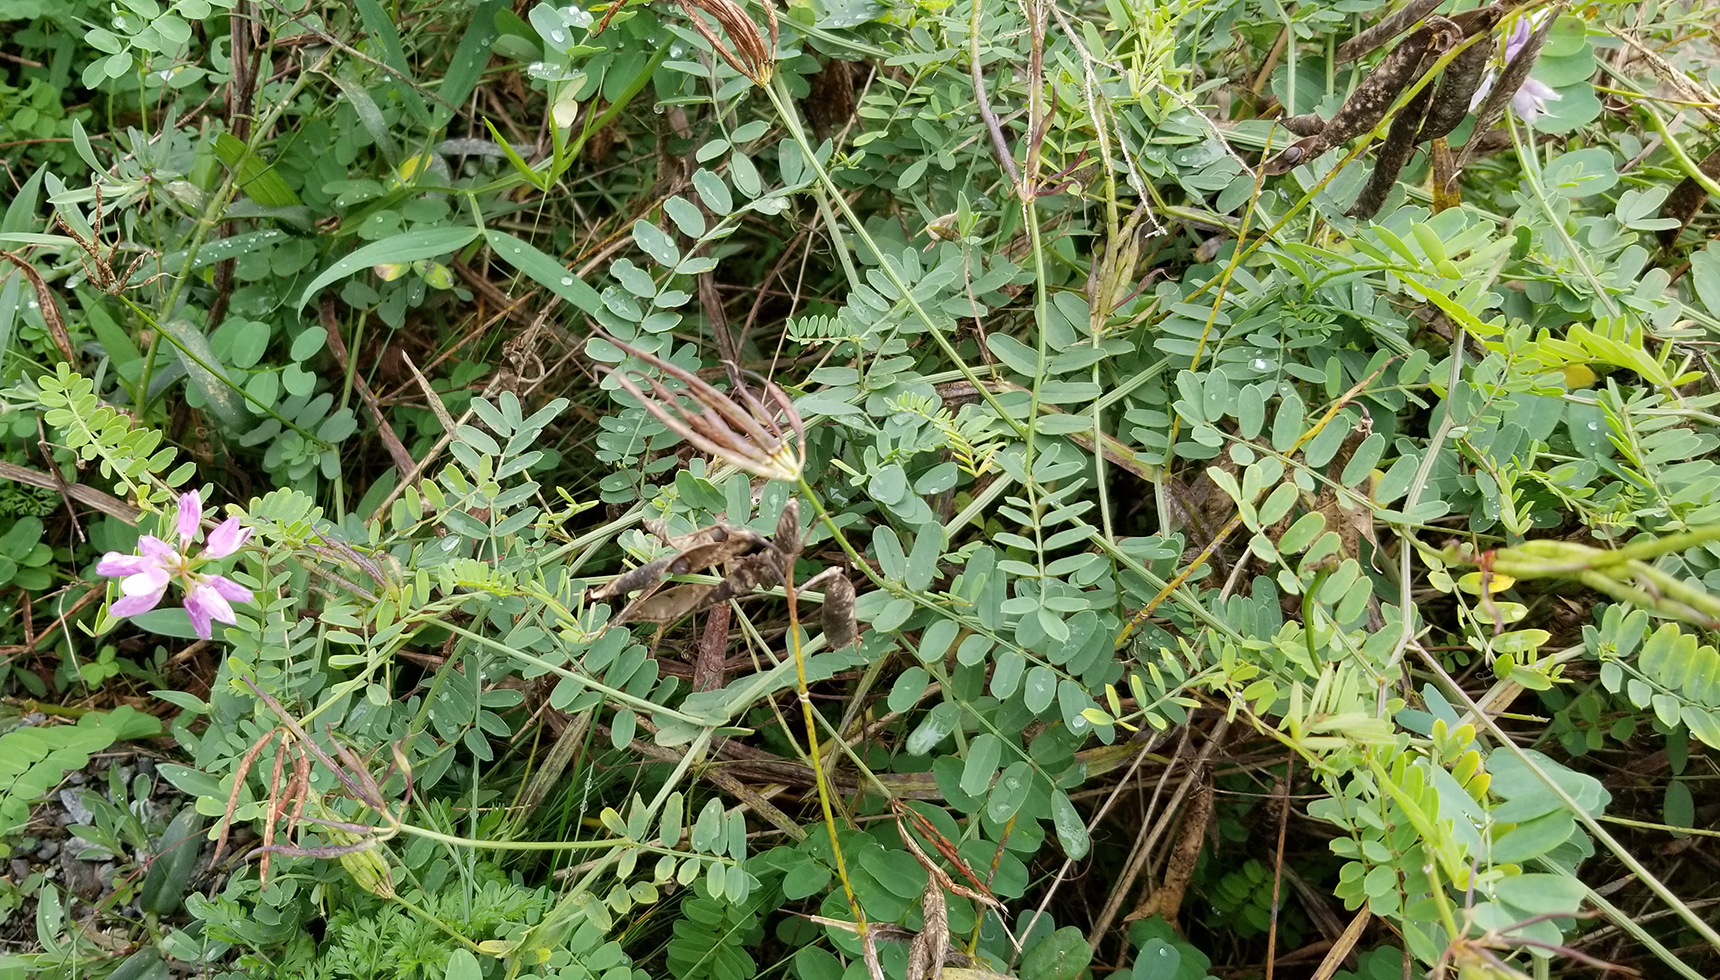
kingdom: Plantae
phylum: Tracheophyta
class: Magnoliopsida
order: Fabales
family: Fabaceae
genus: Coronilla
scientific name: Coronilla varia
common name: Crownvetch
